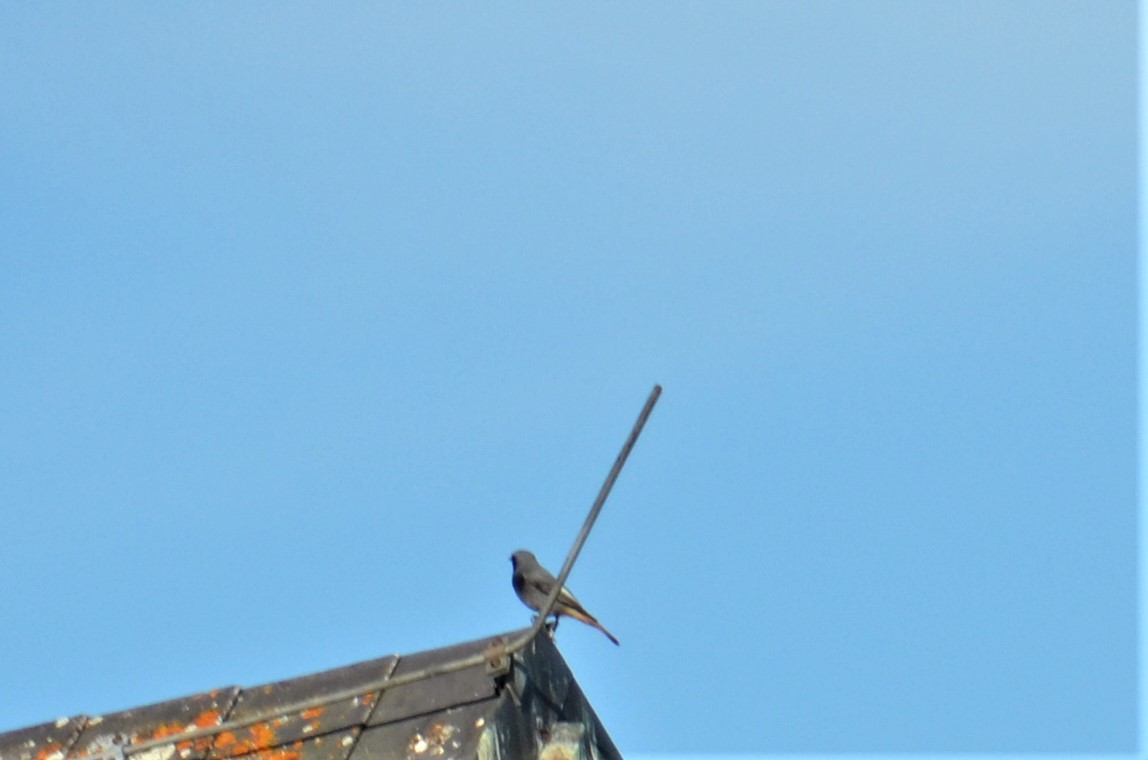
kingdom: Animalia
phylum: Chordata
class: Aves
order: Passeriformes
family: Muscicapidae
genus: Phoenicurus
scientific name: Phoenicurus ochruros
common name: Black redstart
